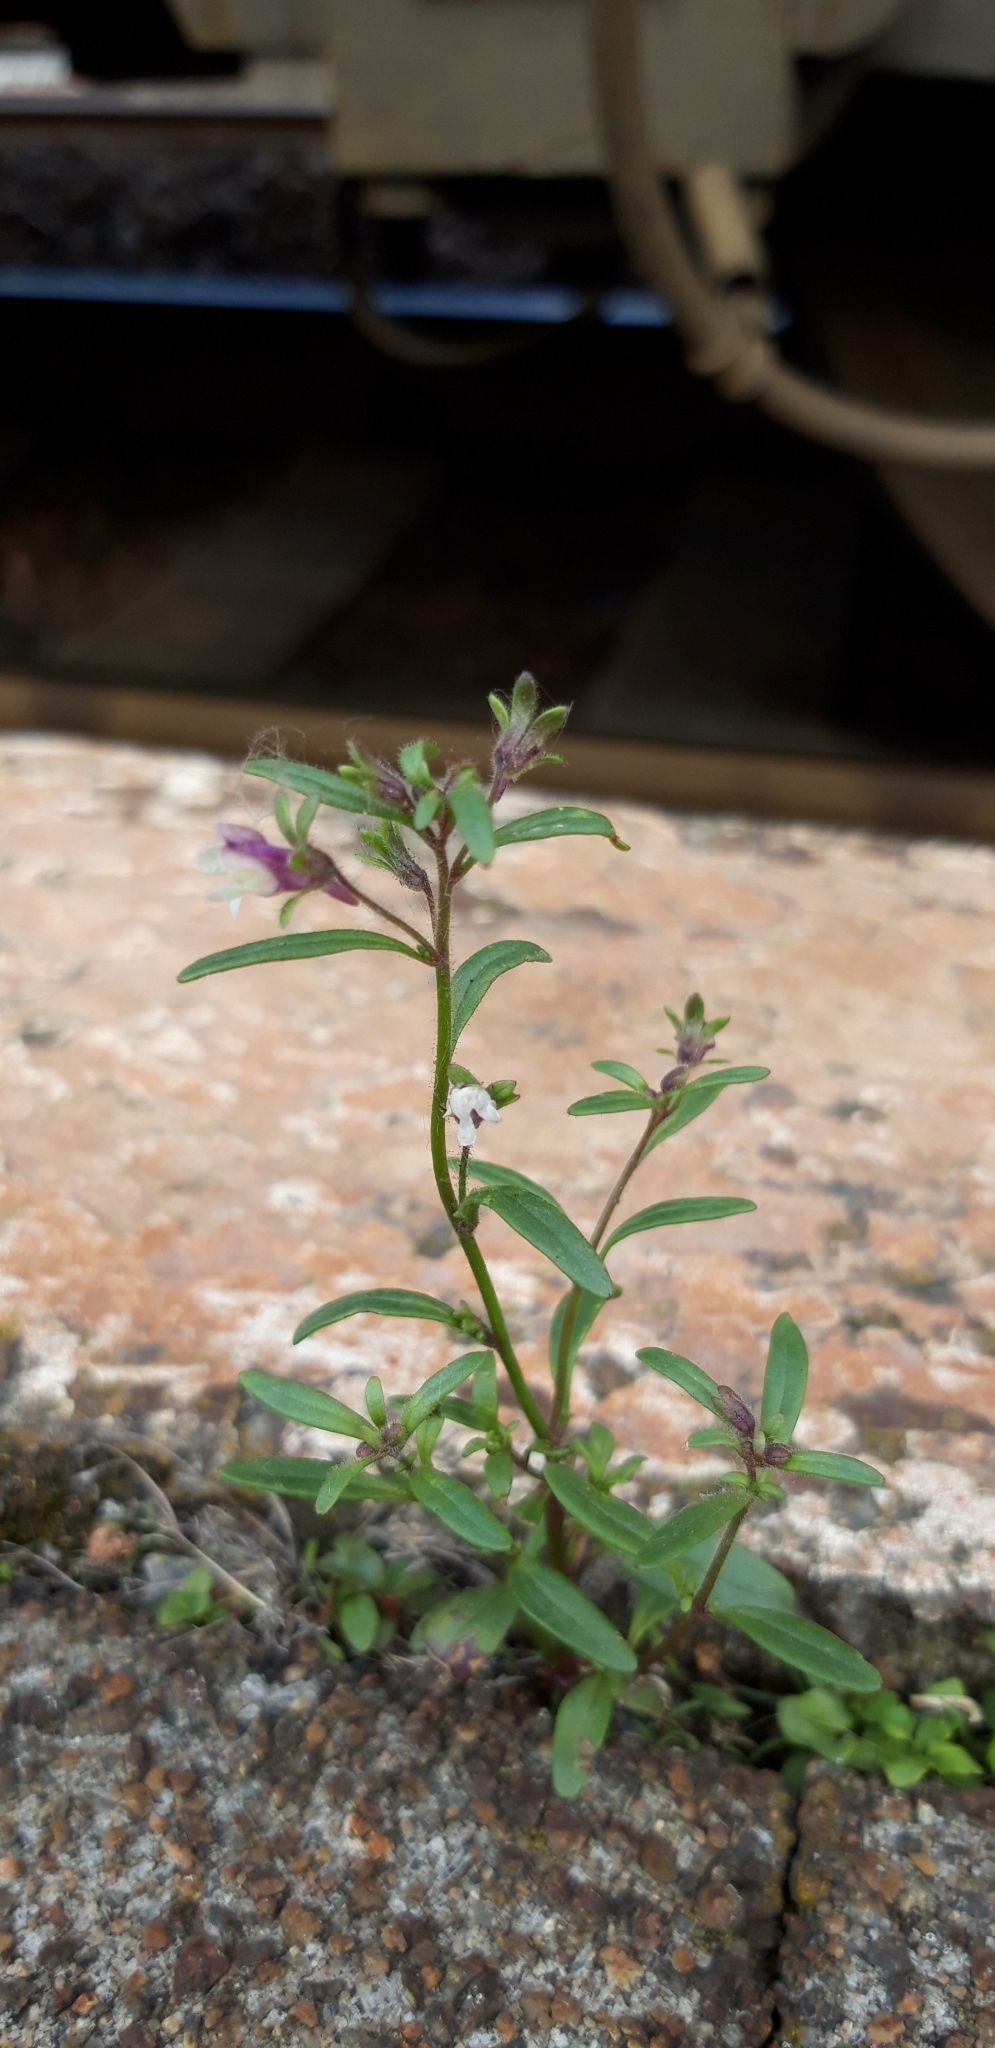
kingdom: Plantae
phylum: Tracheophyta
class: Magnoliopsida
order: Lamiales
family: Plantaginaceae
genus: Chaenorhinum
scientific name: Chaenorhinum minus
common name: Dwarf snapdragon
